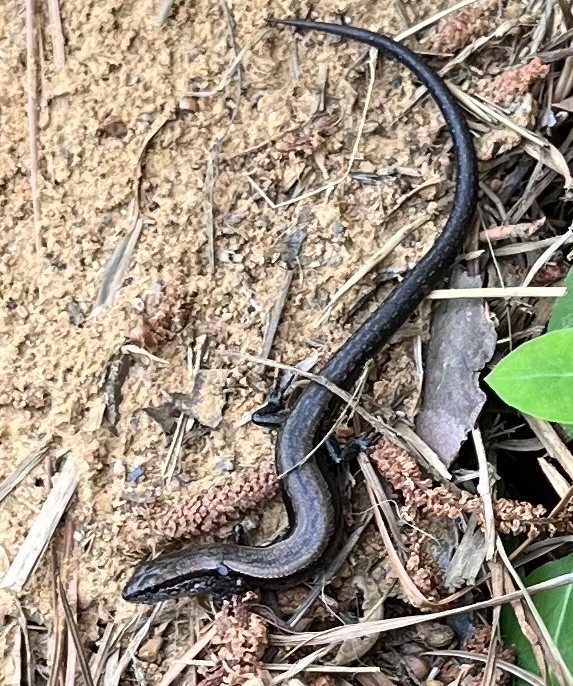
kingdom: Animalia
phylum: Chordata
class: Squamata
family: Scincidae
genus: Scincella
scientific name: Scincella lateralis
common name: Ground skink
